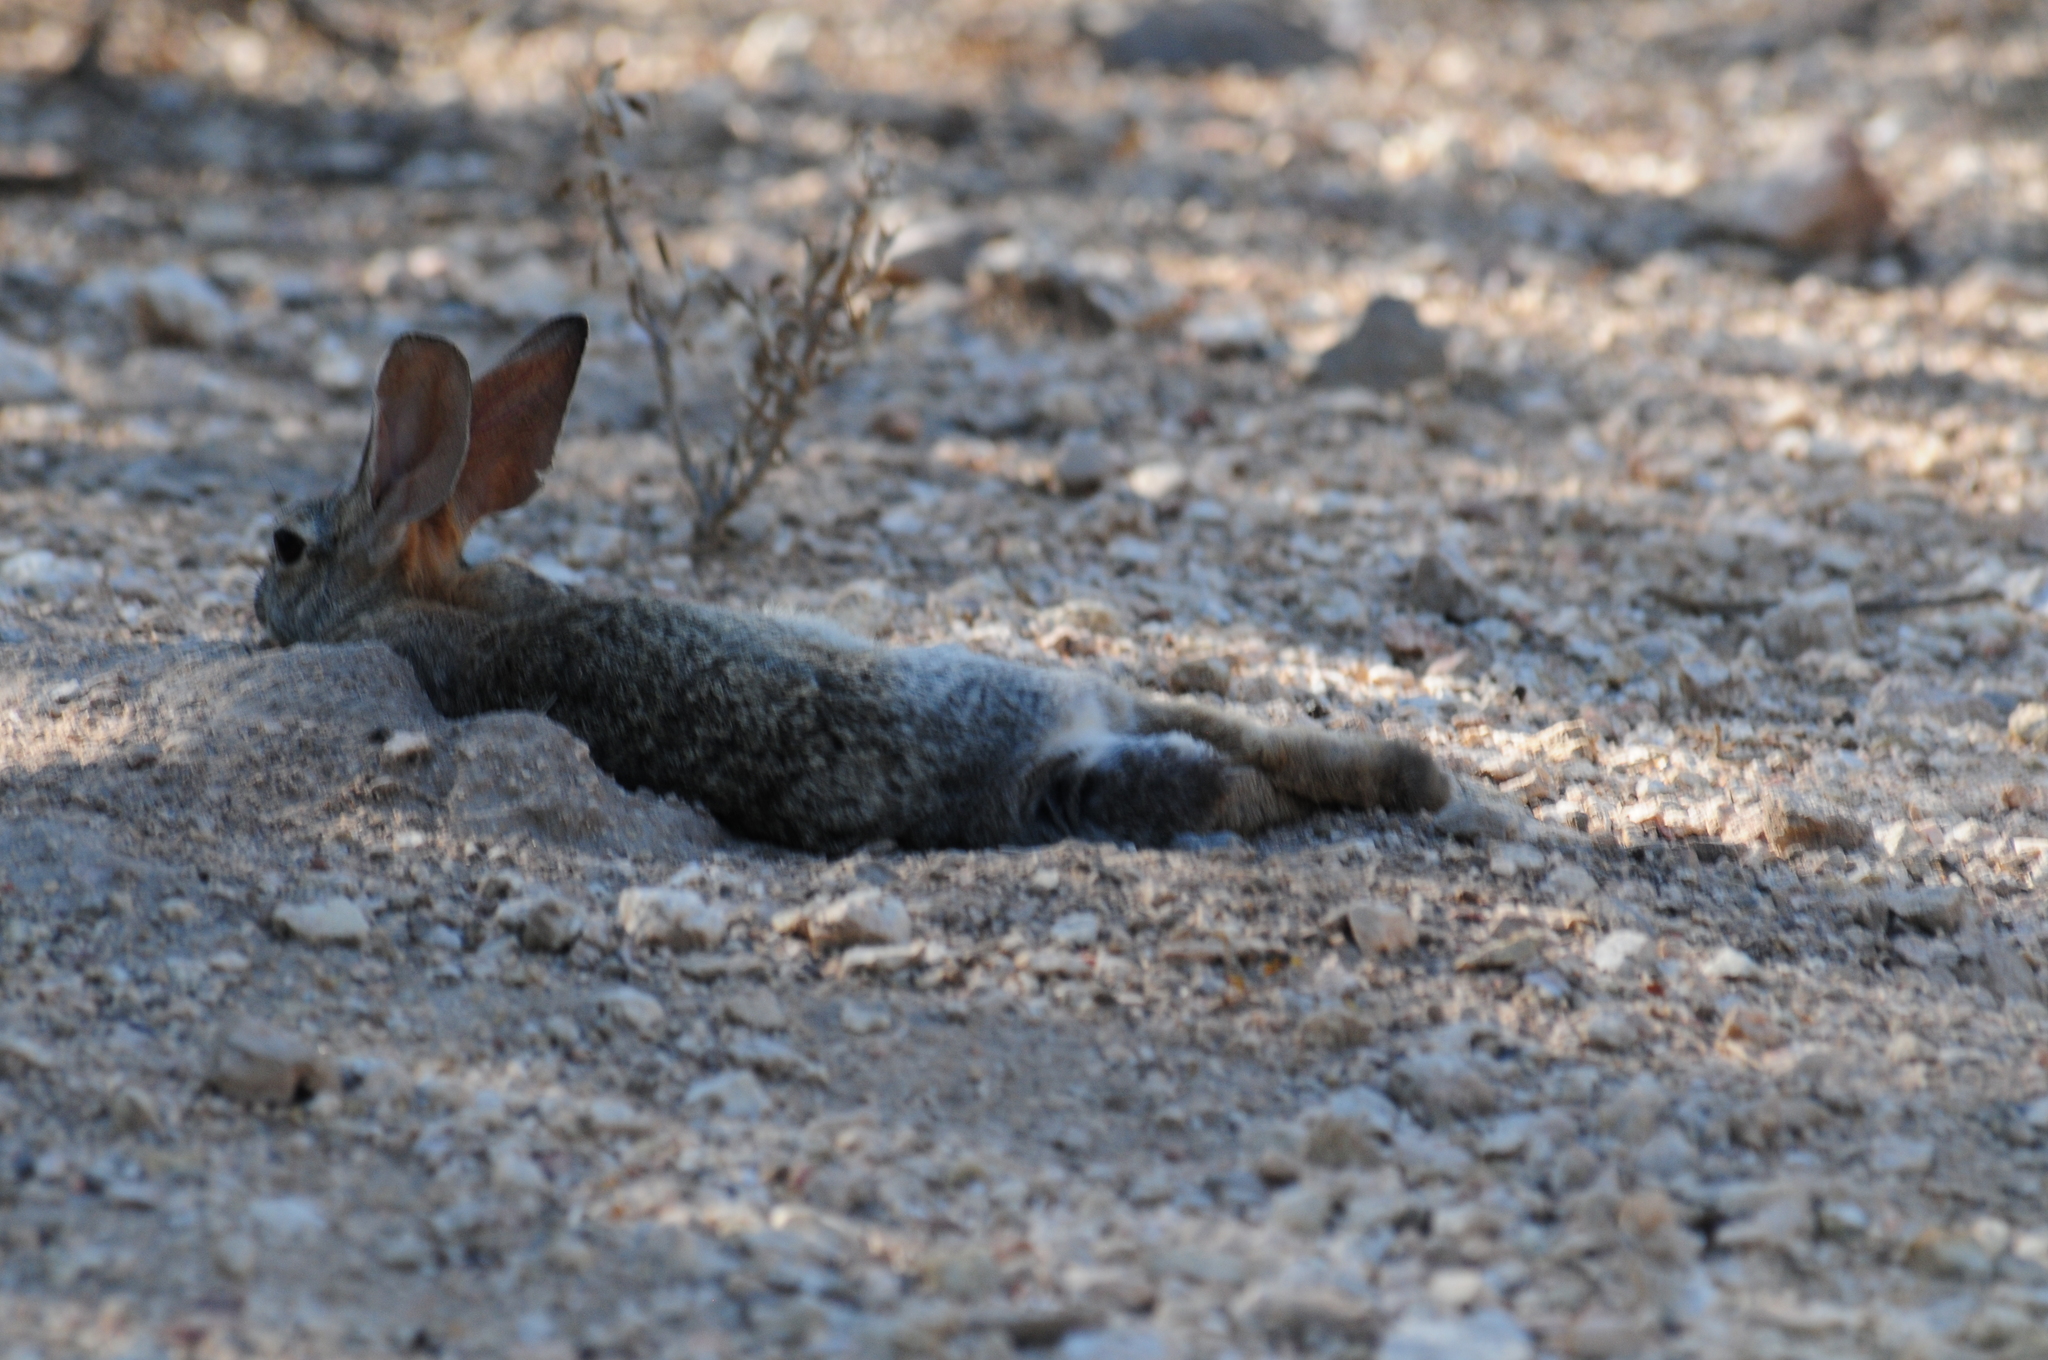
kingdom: Animalia
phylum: Chordata
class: Mammalia
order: Lagomorpha
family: Leporidae
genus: Sylvilagus
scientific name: Sylvilagus audubonii
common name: Desert cottontail
